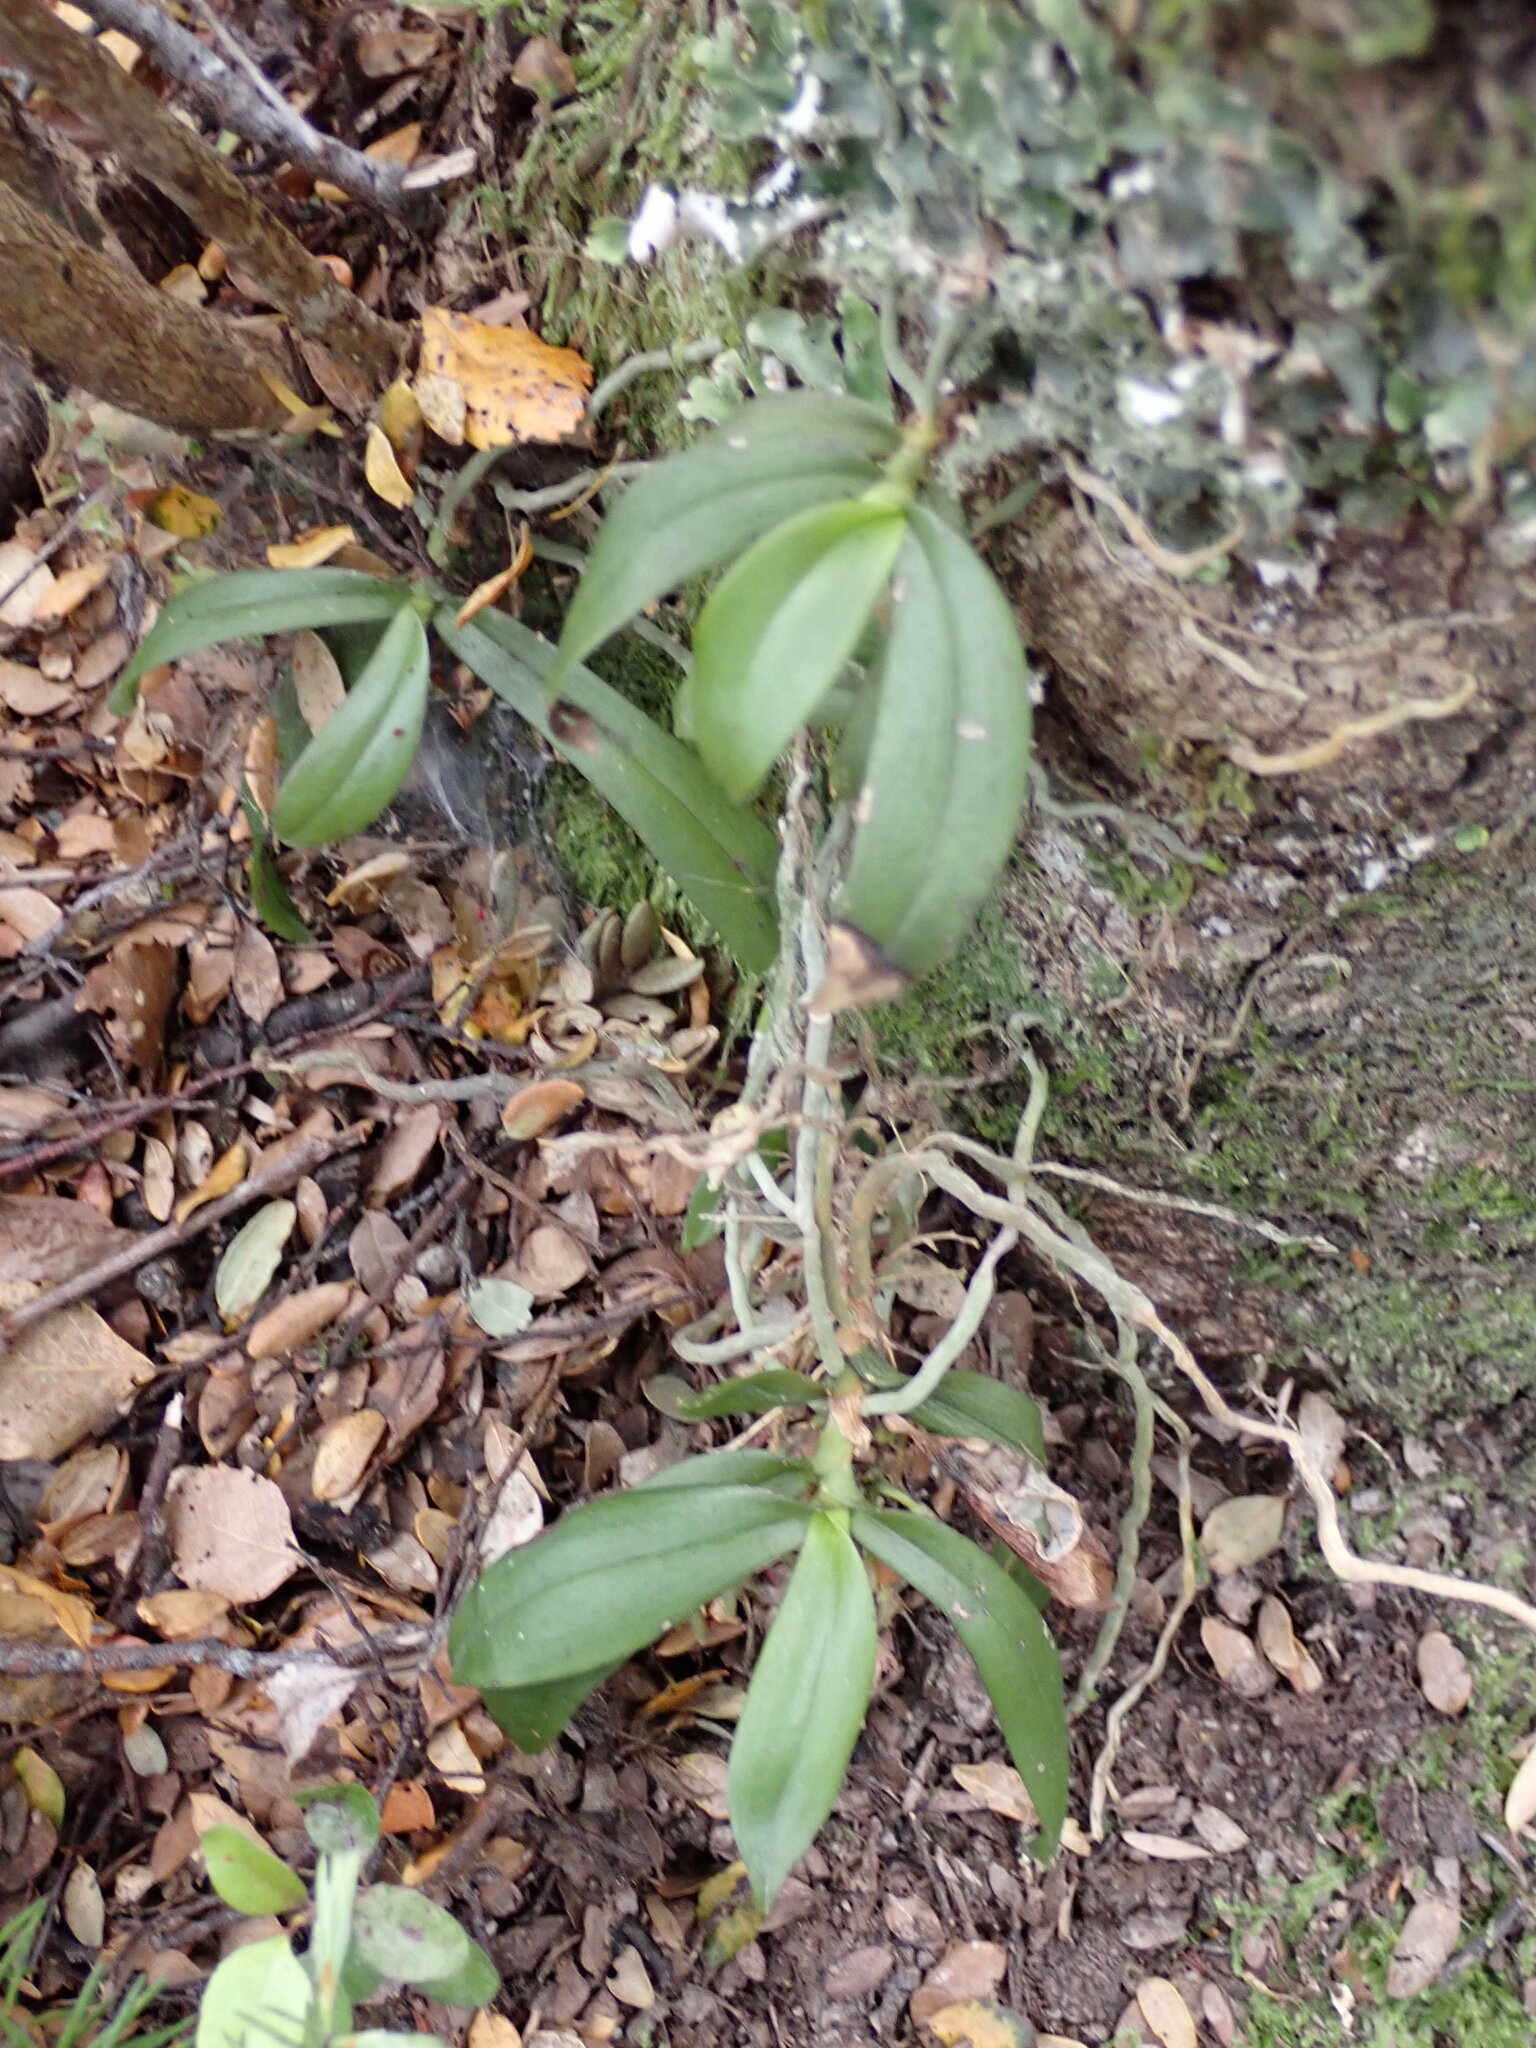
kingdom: Plantae
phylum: Tracheophyta
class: Liliopsida
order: Asparagales
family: Orchidaceae
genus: Drymoanthus
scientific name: Drymoanthus adversus
